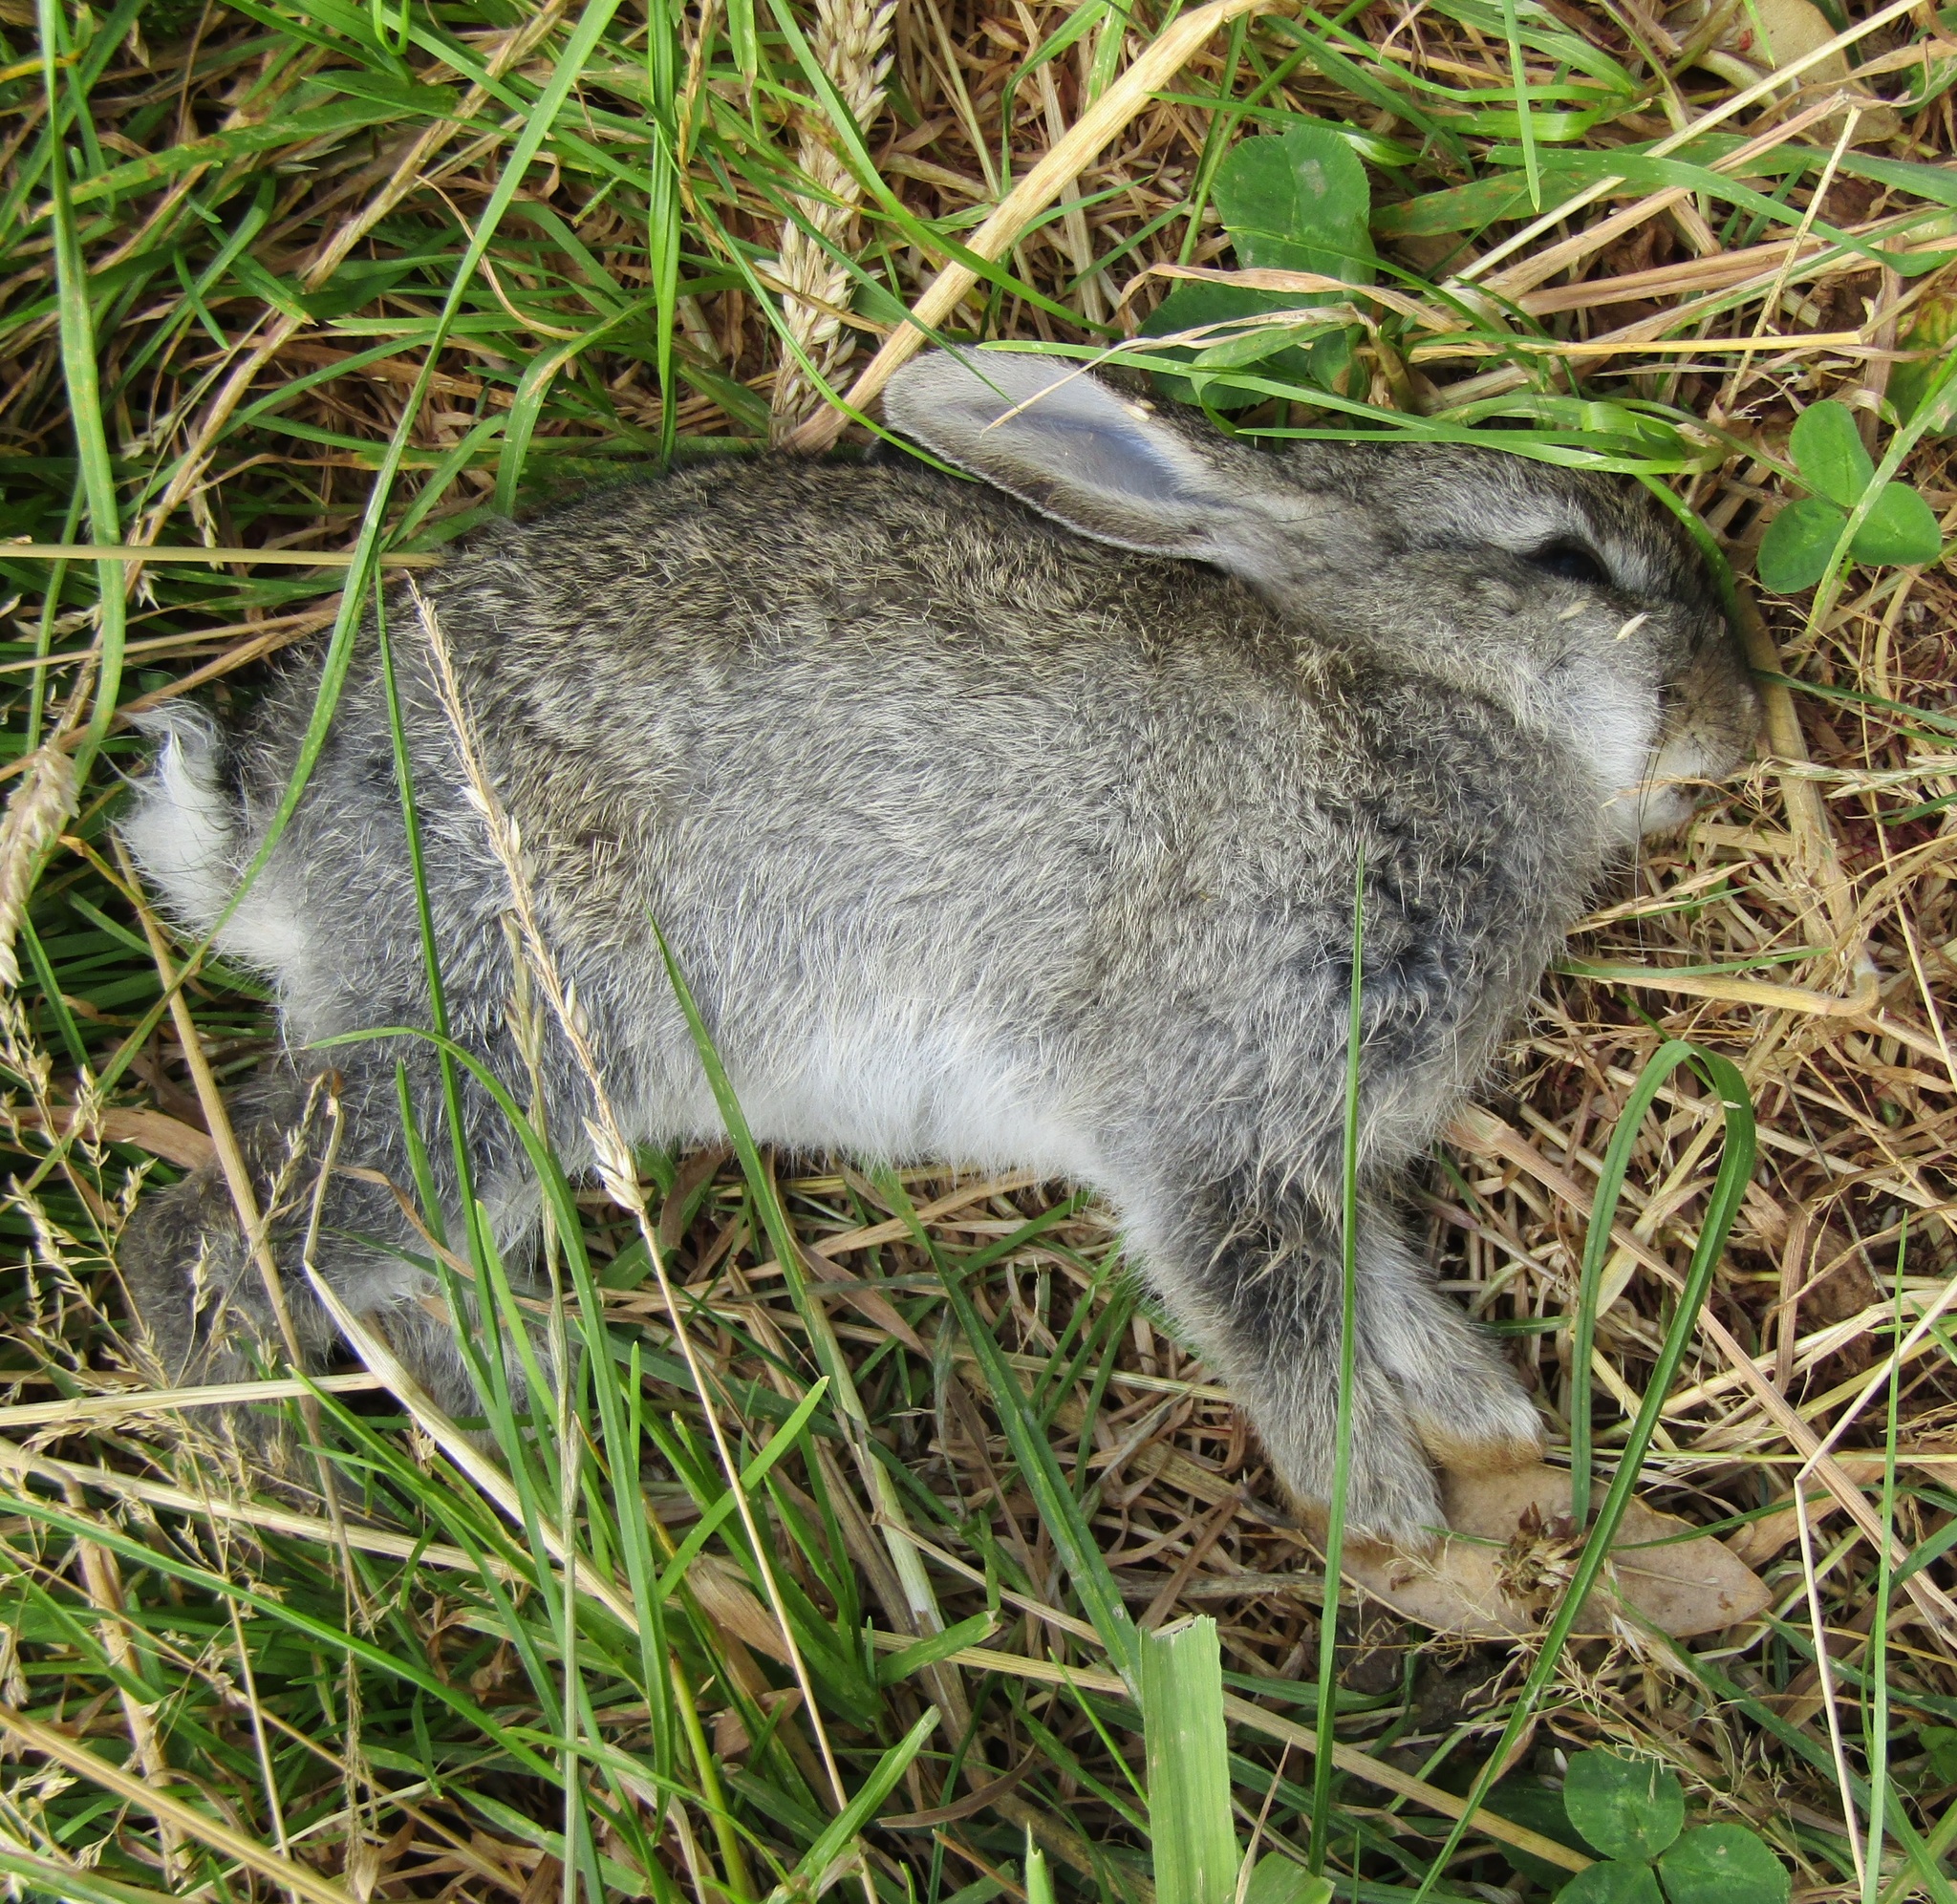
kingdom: Animalia
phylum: Chordata
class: Mammalia
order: Lagomorpha
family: Leporidae
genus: Oryctolagus
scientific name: Oryctolagus cuniculus
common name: European rabbit
